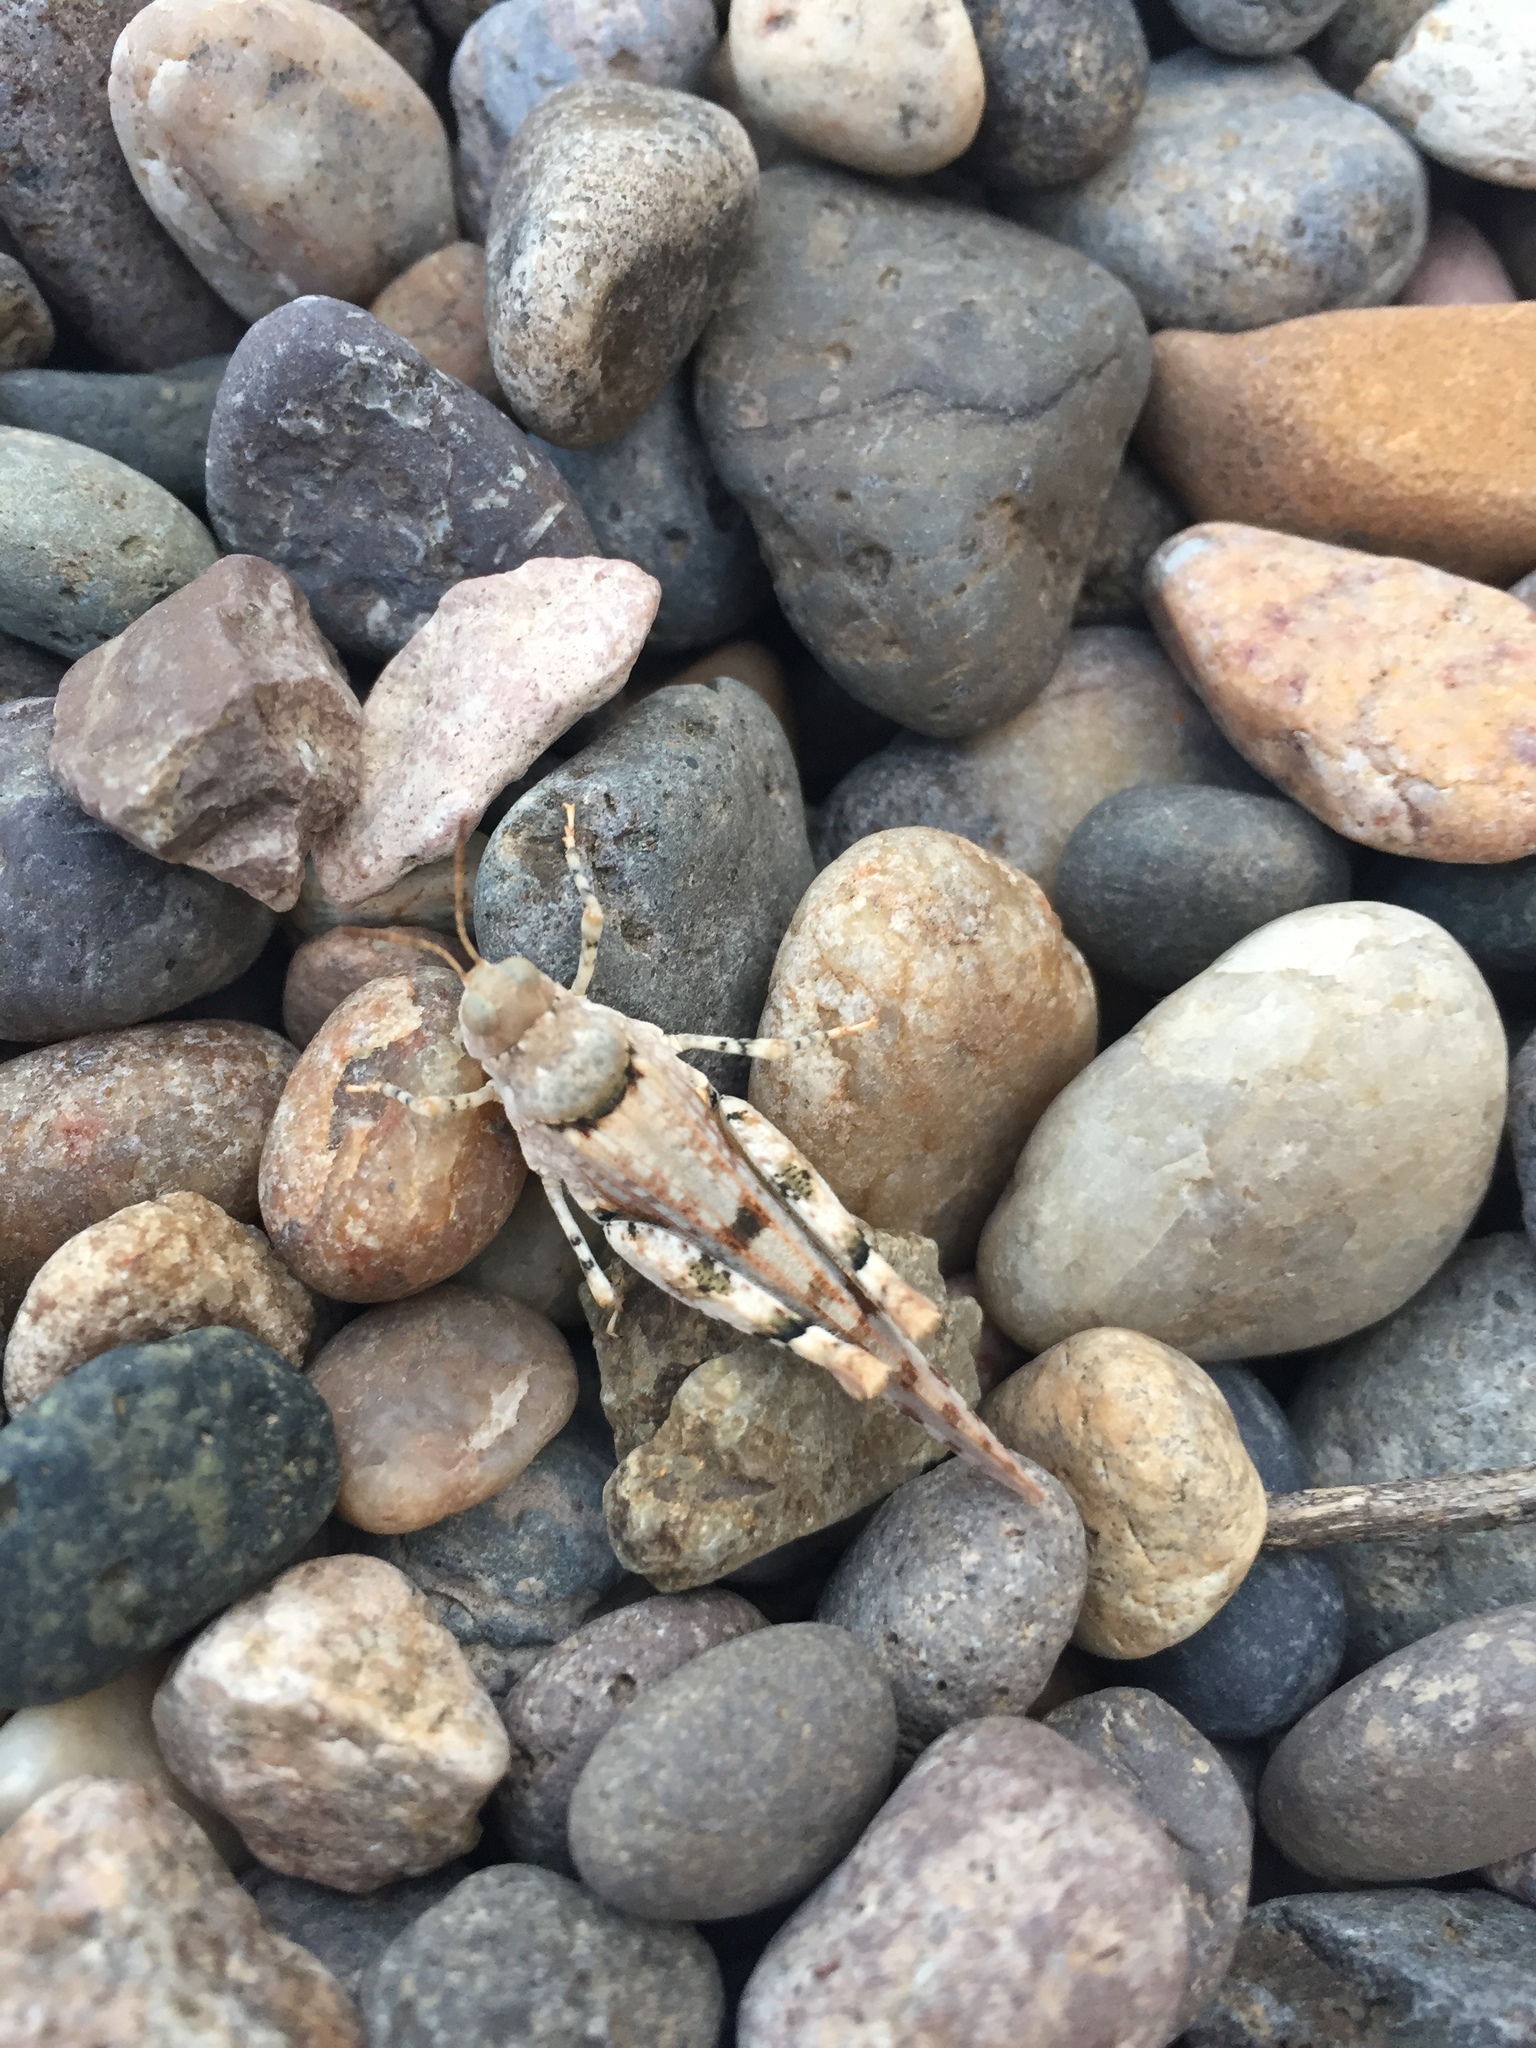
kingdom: Animalia
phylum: Arthropoda
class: Insecta
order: Orthoptera
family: Acrididae
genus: Cibolacris
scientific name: Cibolacris parviceps
